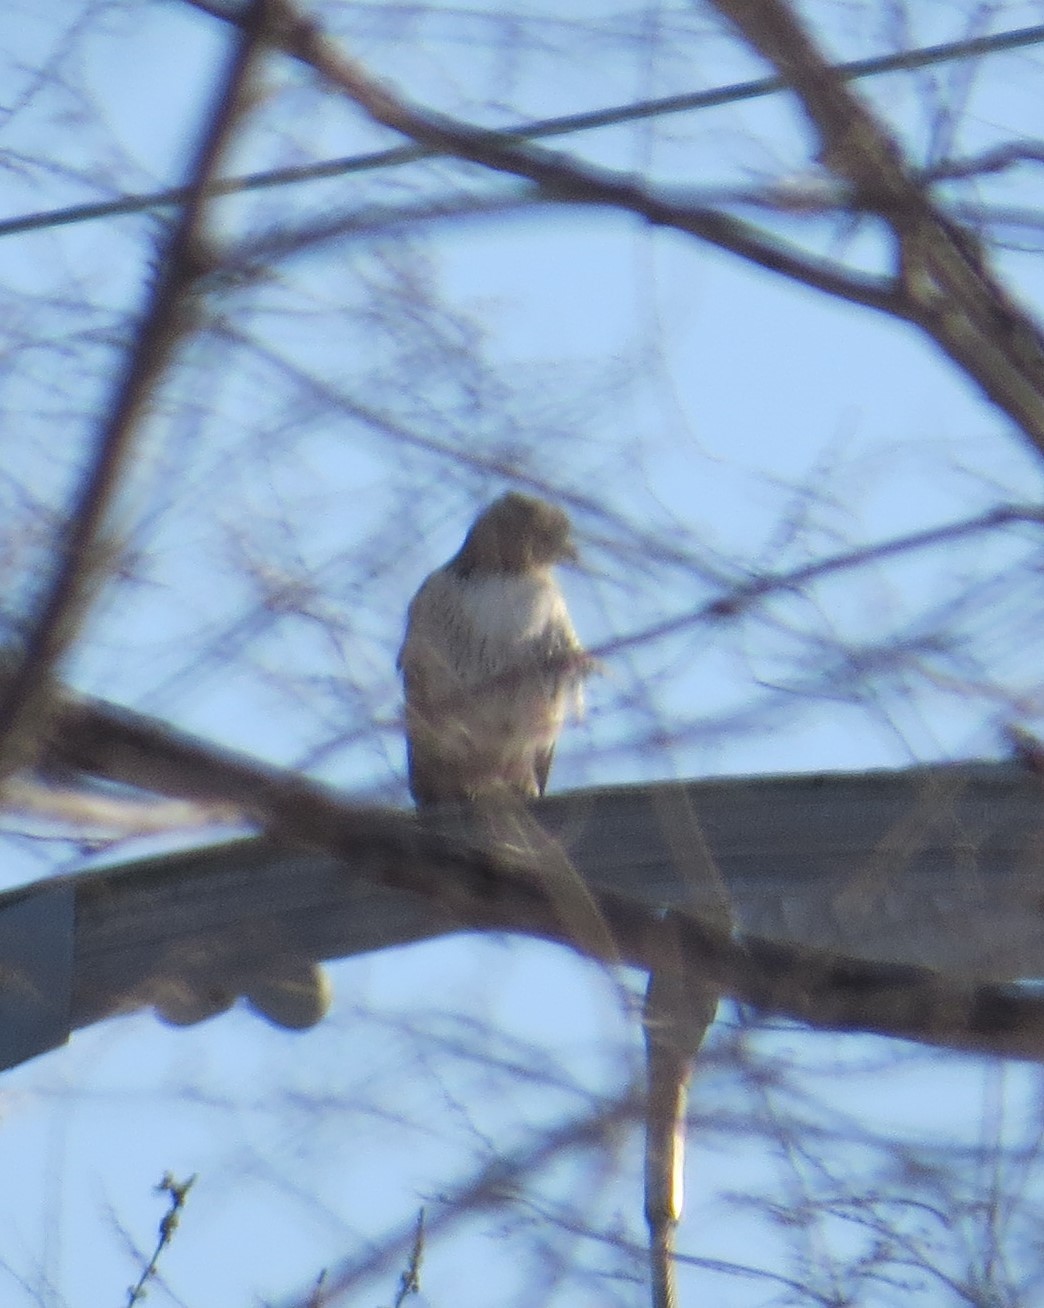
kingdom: Animalia
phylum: Chordata
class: Aves
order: Accipitriformes
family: Accipitridae
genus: Buteo
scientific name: Buteo jamaicensis
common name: Red-tailed hawk
